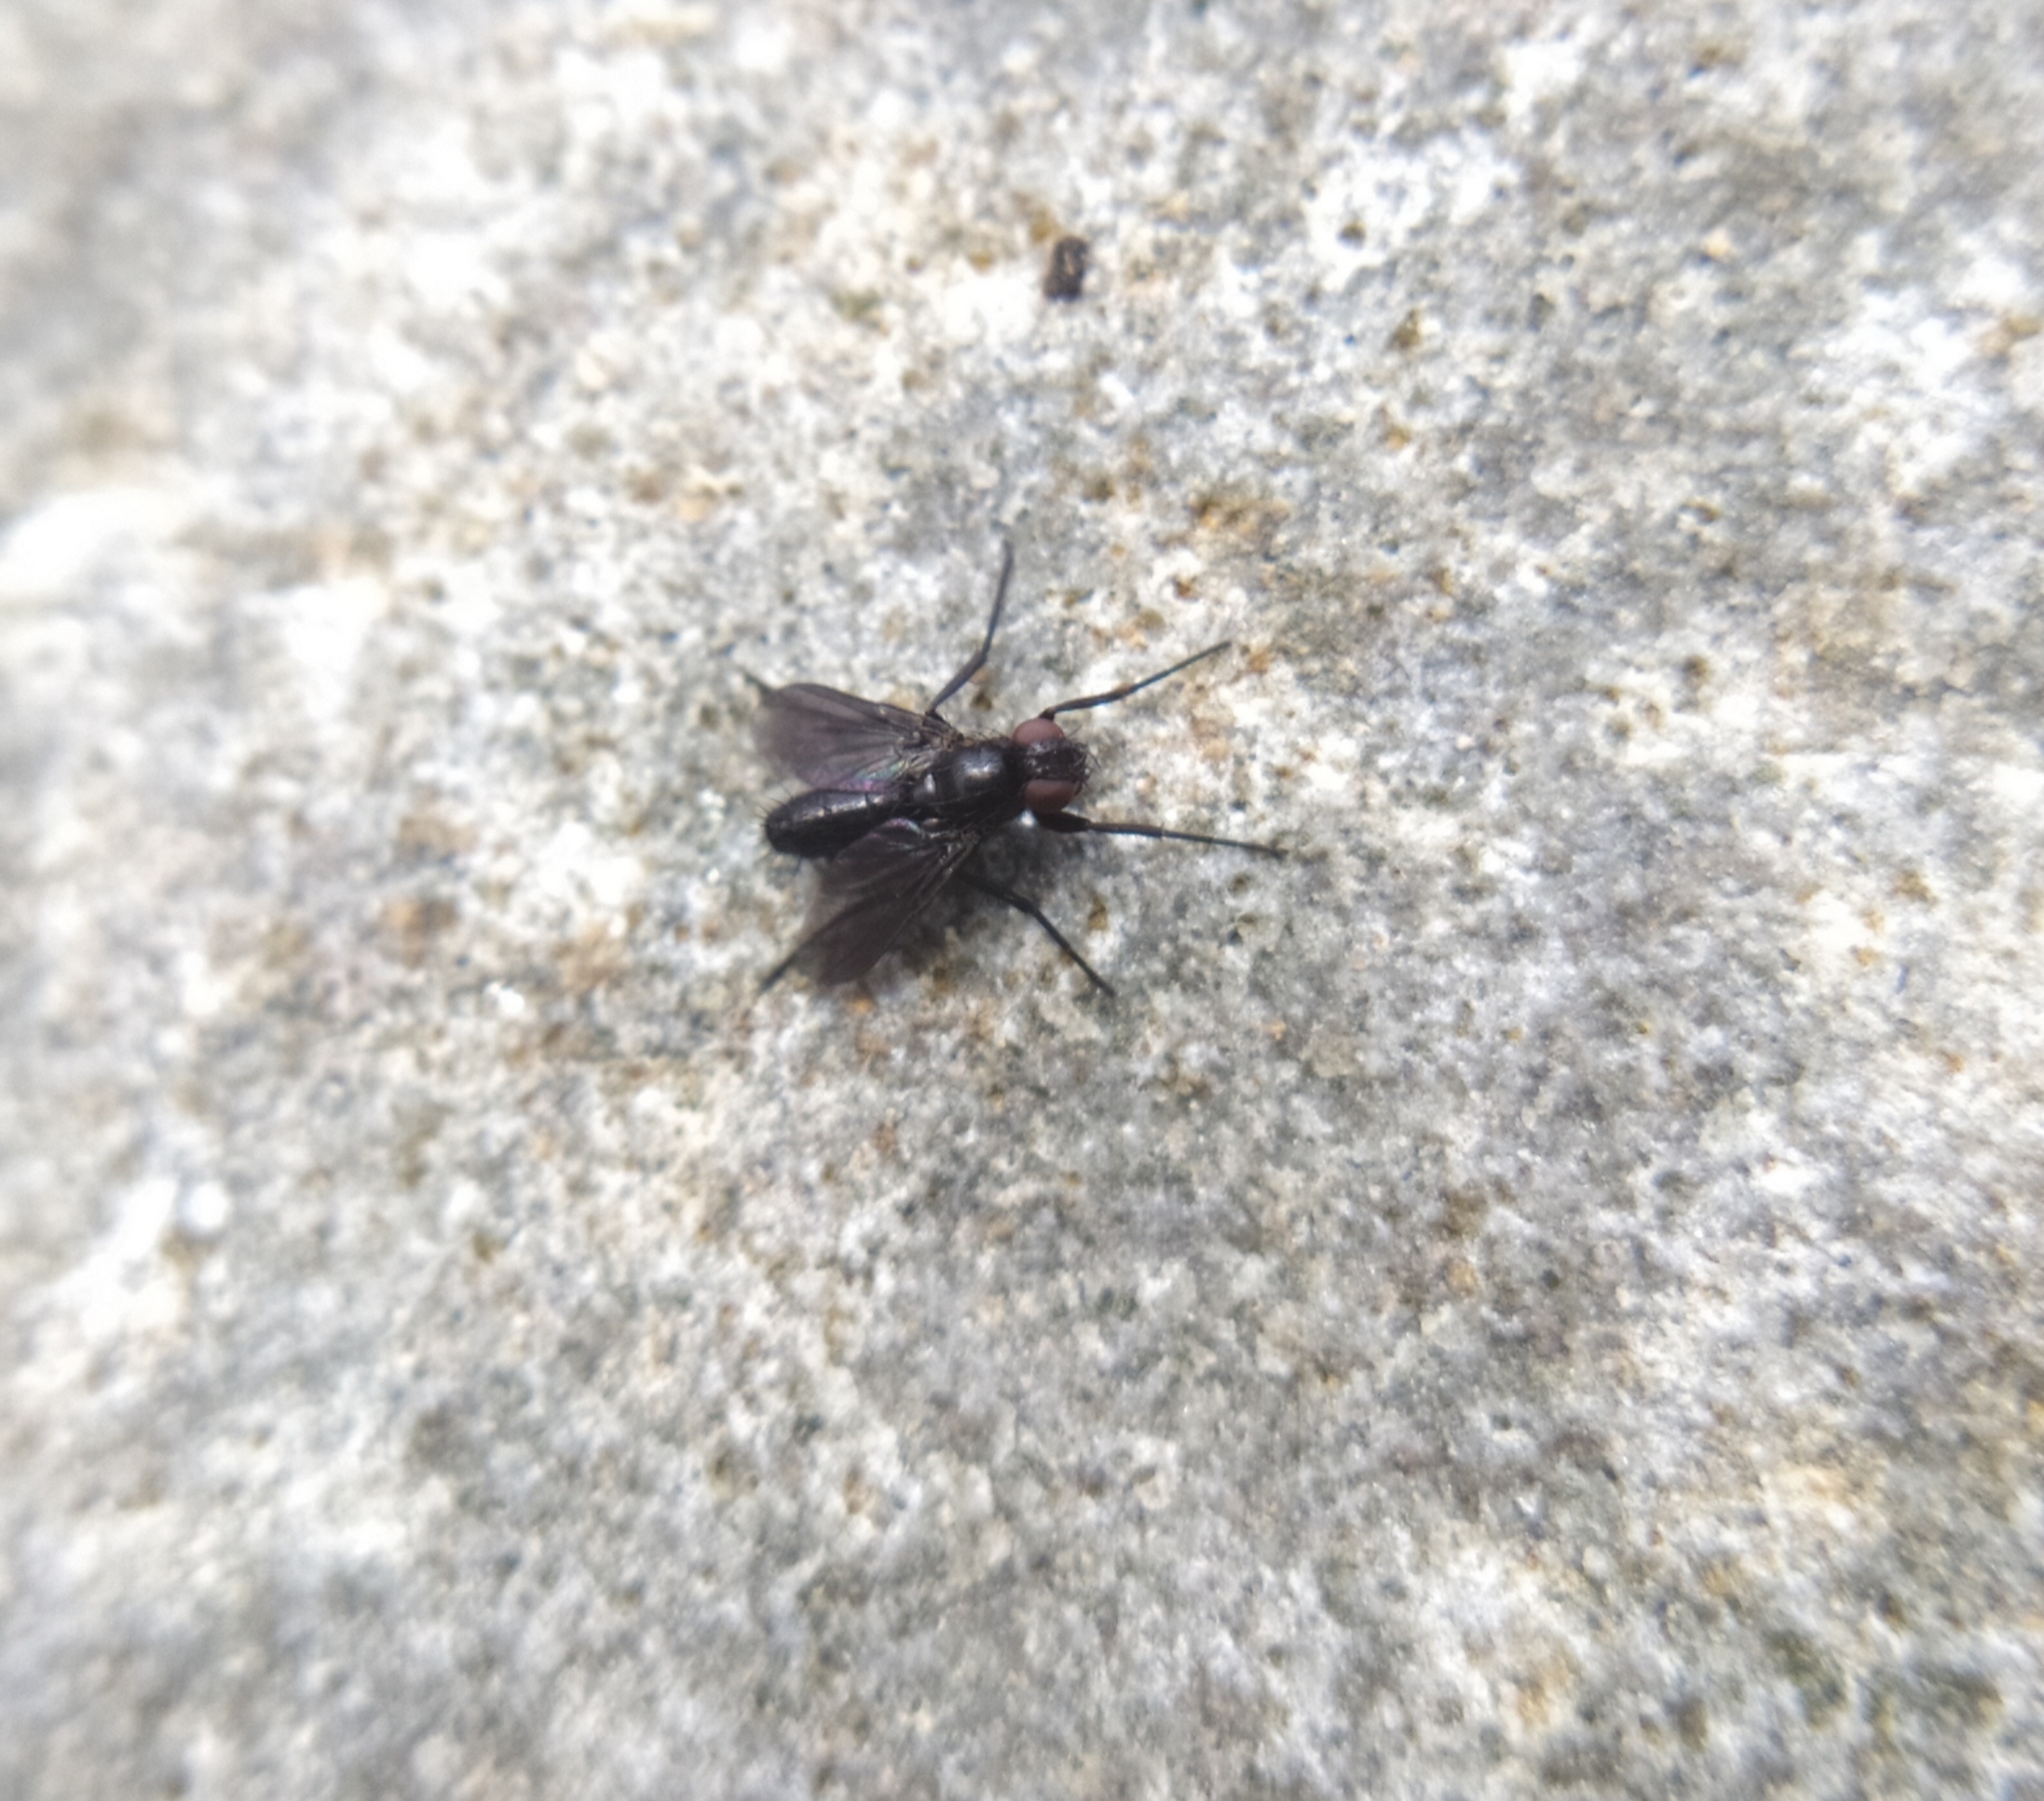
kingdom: Animalia
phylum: Arthropoda
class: Insecta
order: Diptera
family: Calliphoridae
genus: Melanophora
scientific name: Melanophora roralis
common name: Smoky-winged woodlouse-fly
